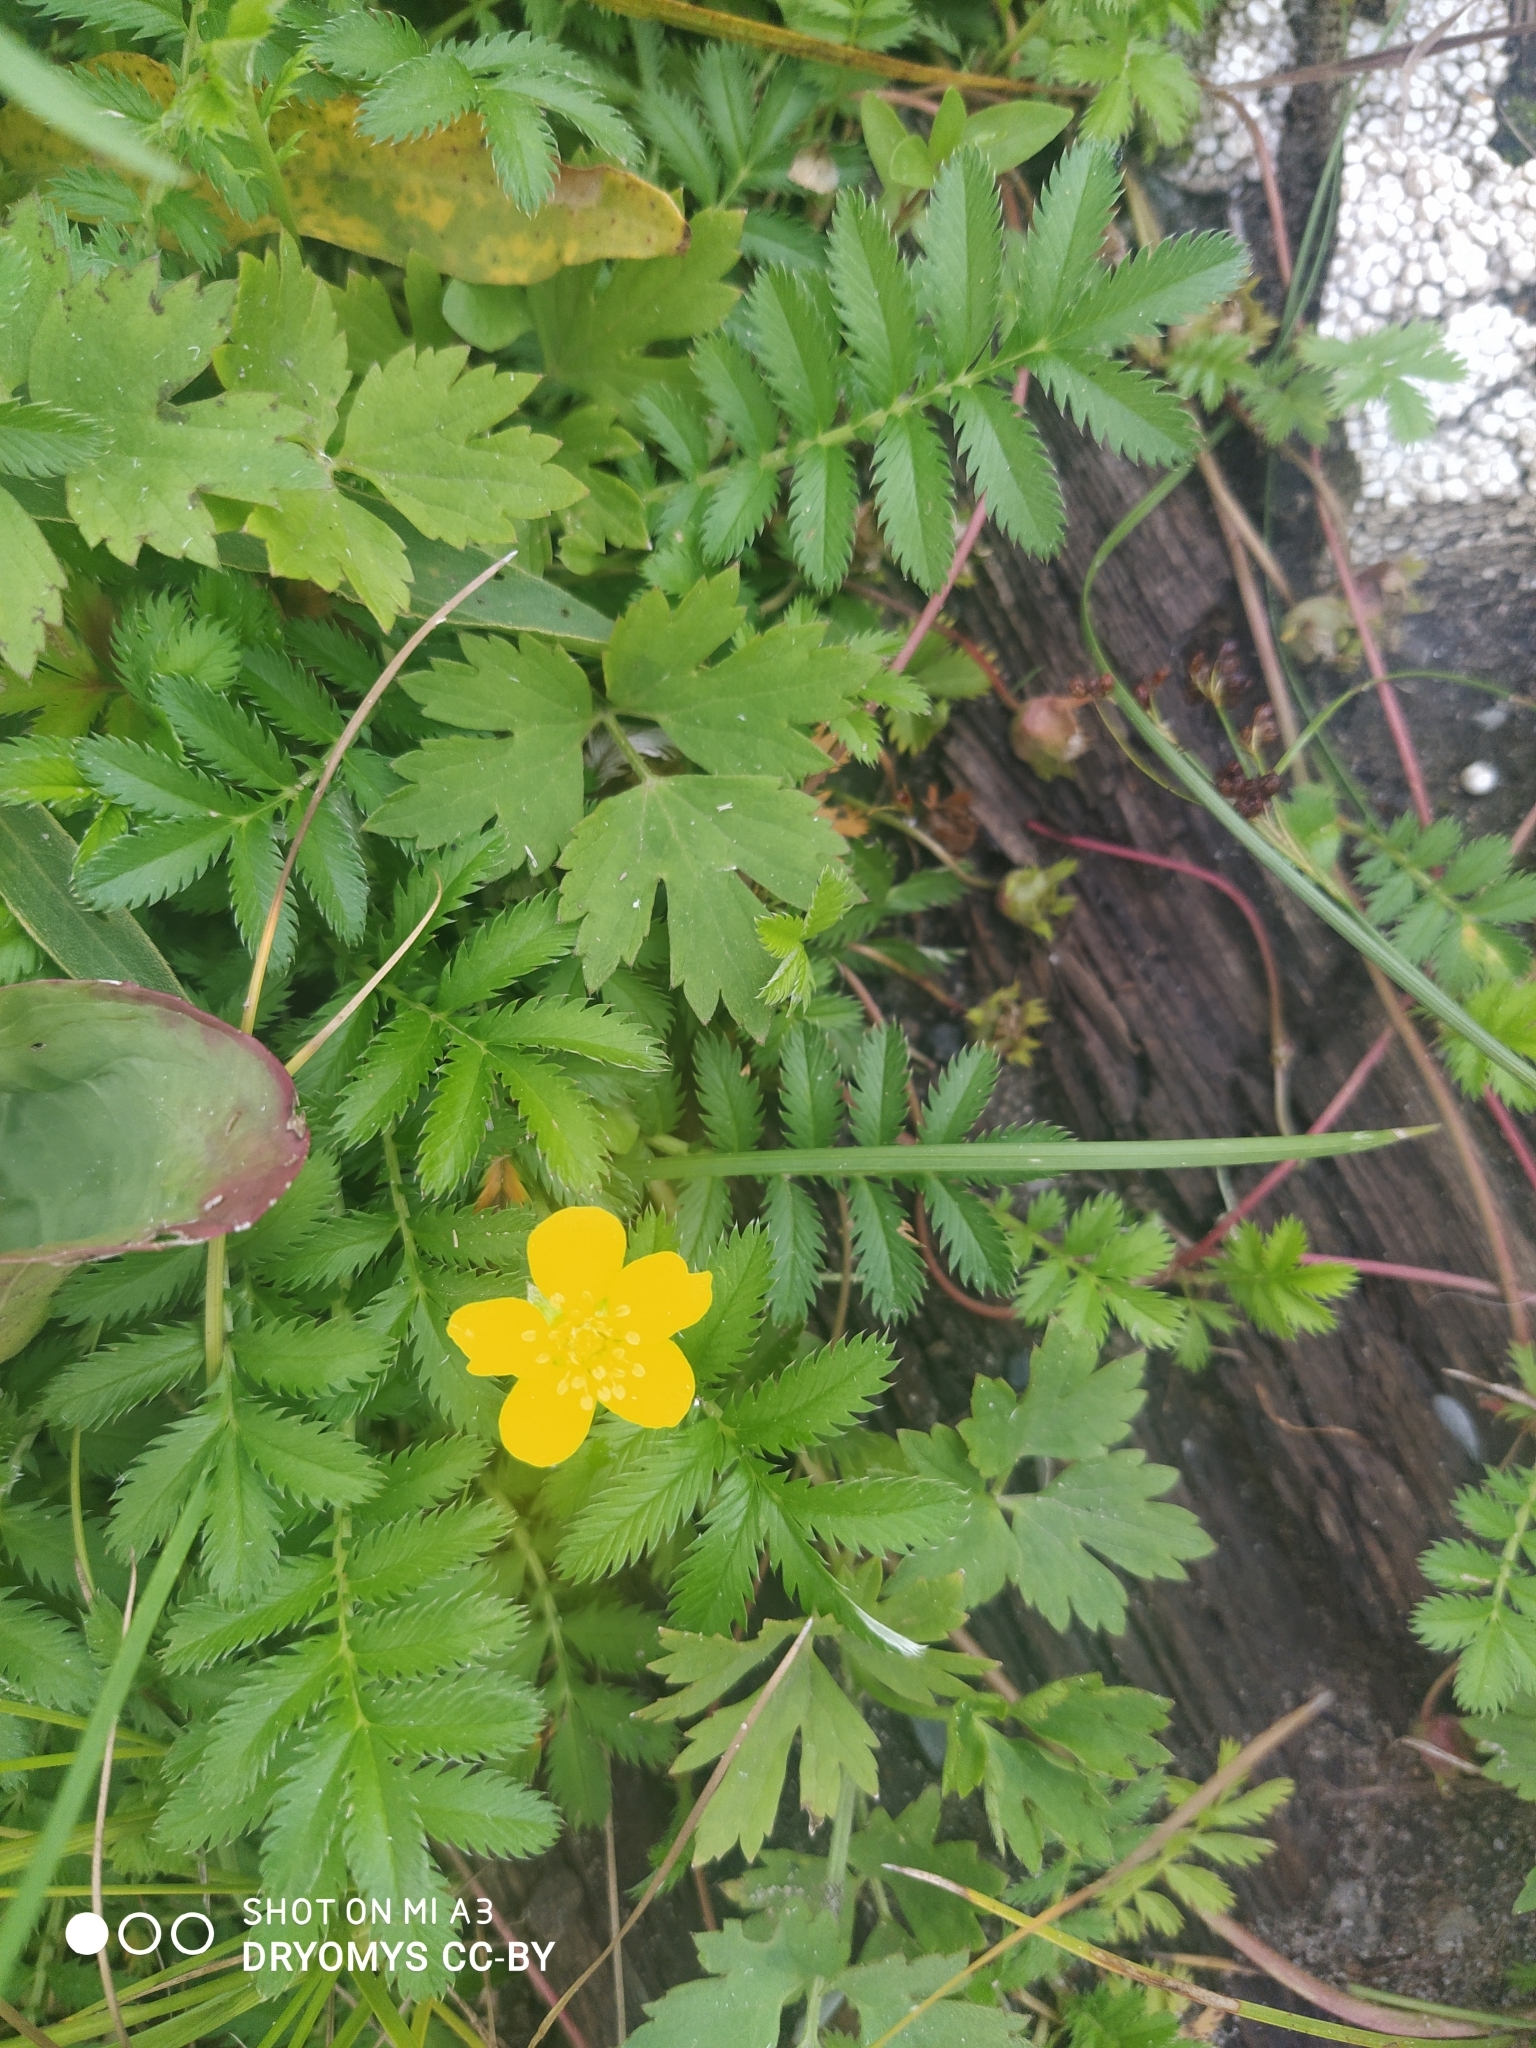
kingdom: Plantae
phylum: Tracheophyta
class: Magnoliopsida
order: Rosales
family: Rosaceae
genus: Argentina
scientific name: Argentina anserina
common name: Common silverweed
